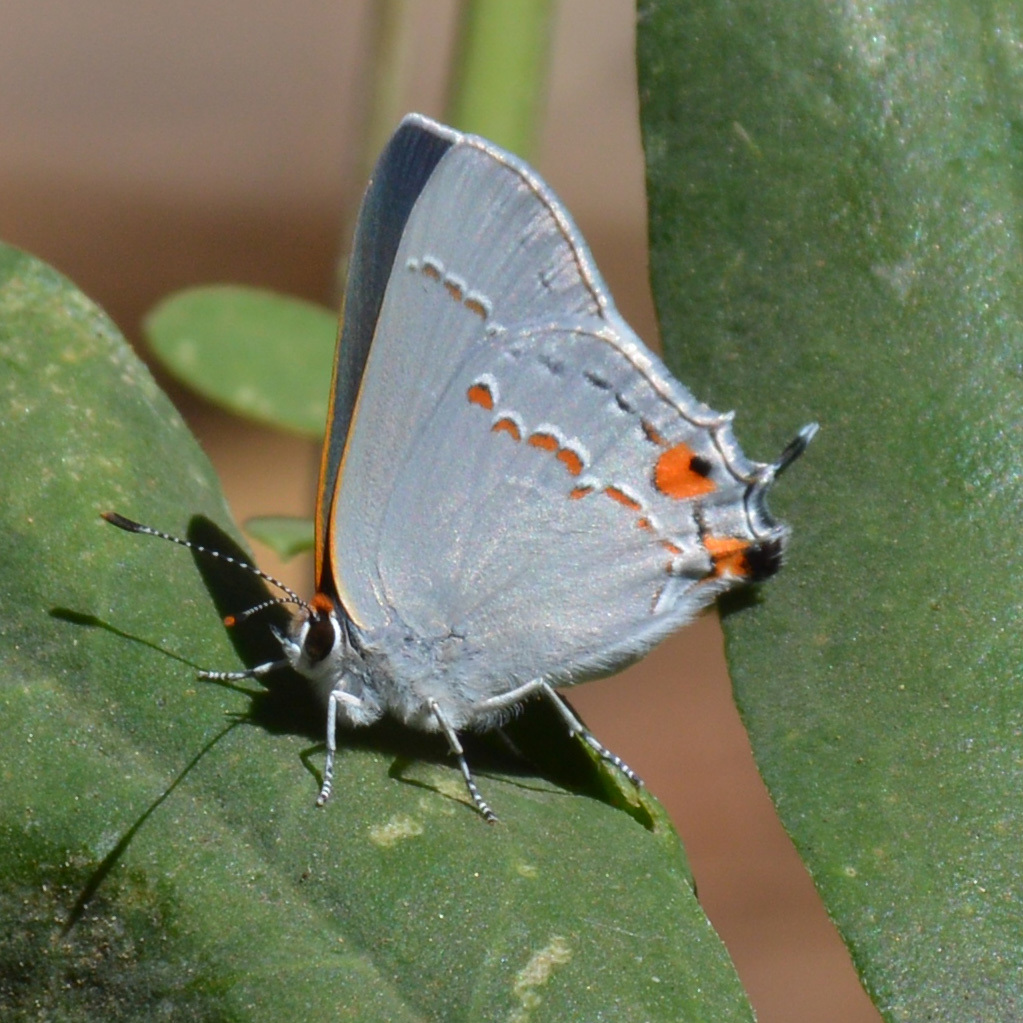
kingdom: Animalia
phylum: Arthropoda
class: Insecta
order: Lepidoptera
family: Lycaenidae
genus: Strymon
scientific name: Strymon melinus
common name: Gray hairstreak
